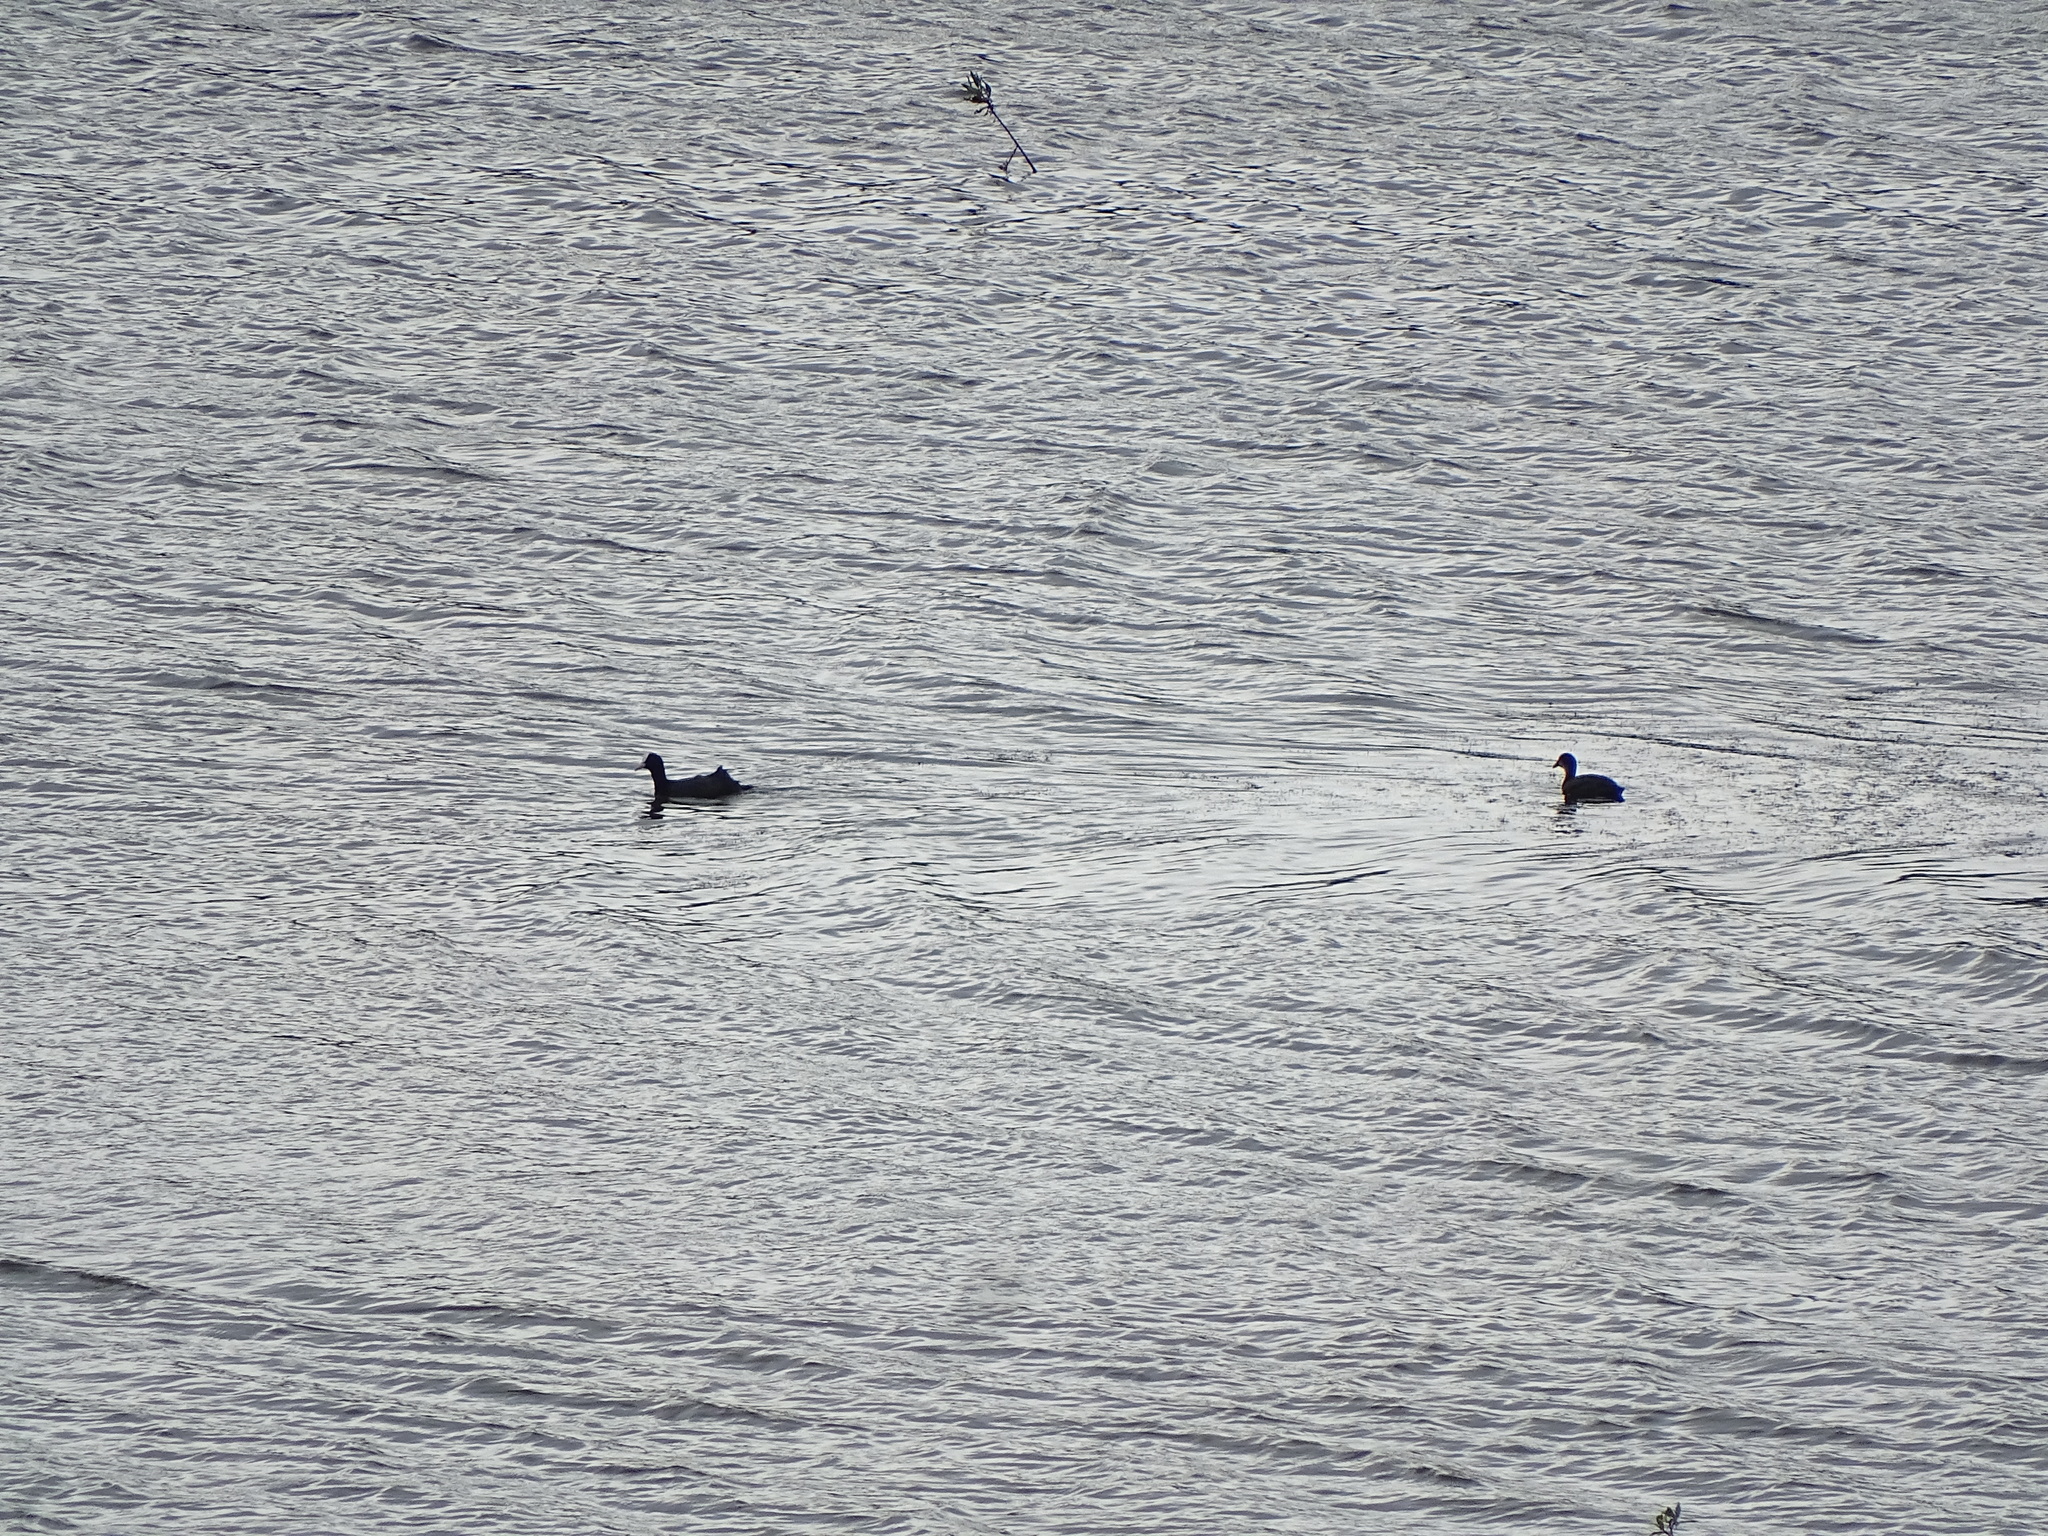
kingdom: Animalia
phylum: Chordata
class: Aves
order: Gruiformes
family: Rallidae
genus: Fulica
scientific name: Fulica atra
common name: Eurasian coot
